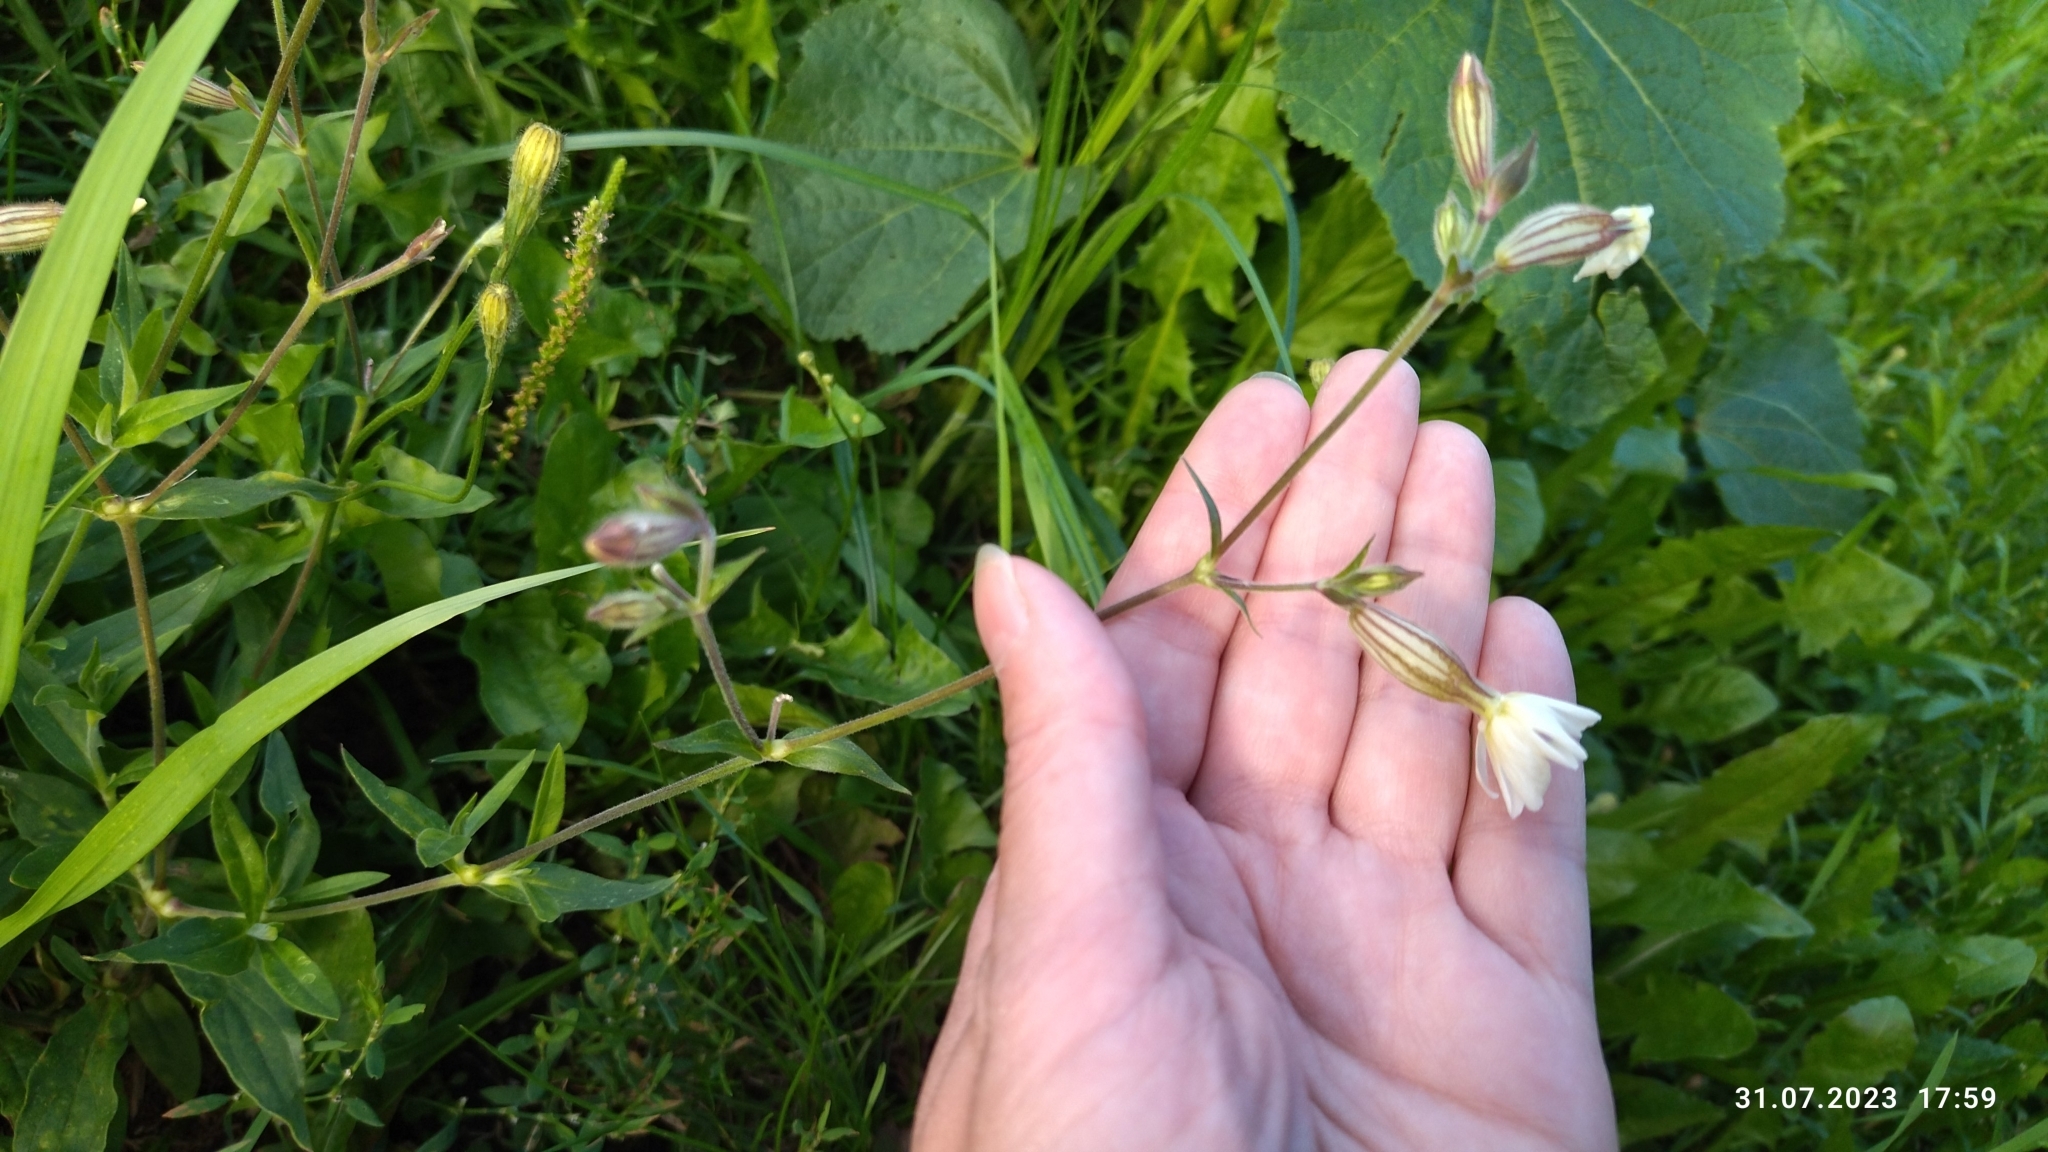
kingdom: Plantae
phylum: Tracheophyta
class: Magnoliopsida
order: Caryophyllales
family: Caryophyllaceae
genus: Silene
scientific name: Silene latifolia
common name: White campion
